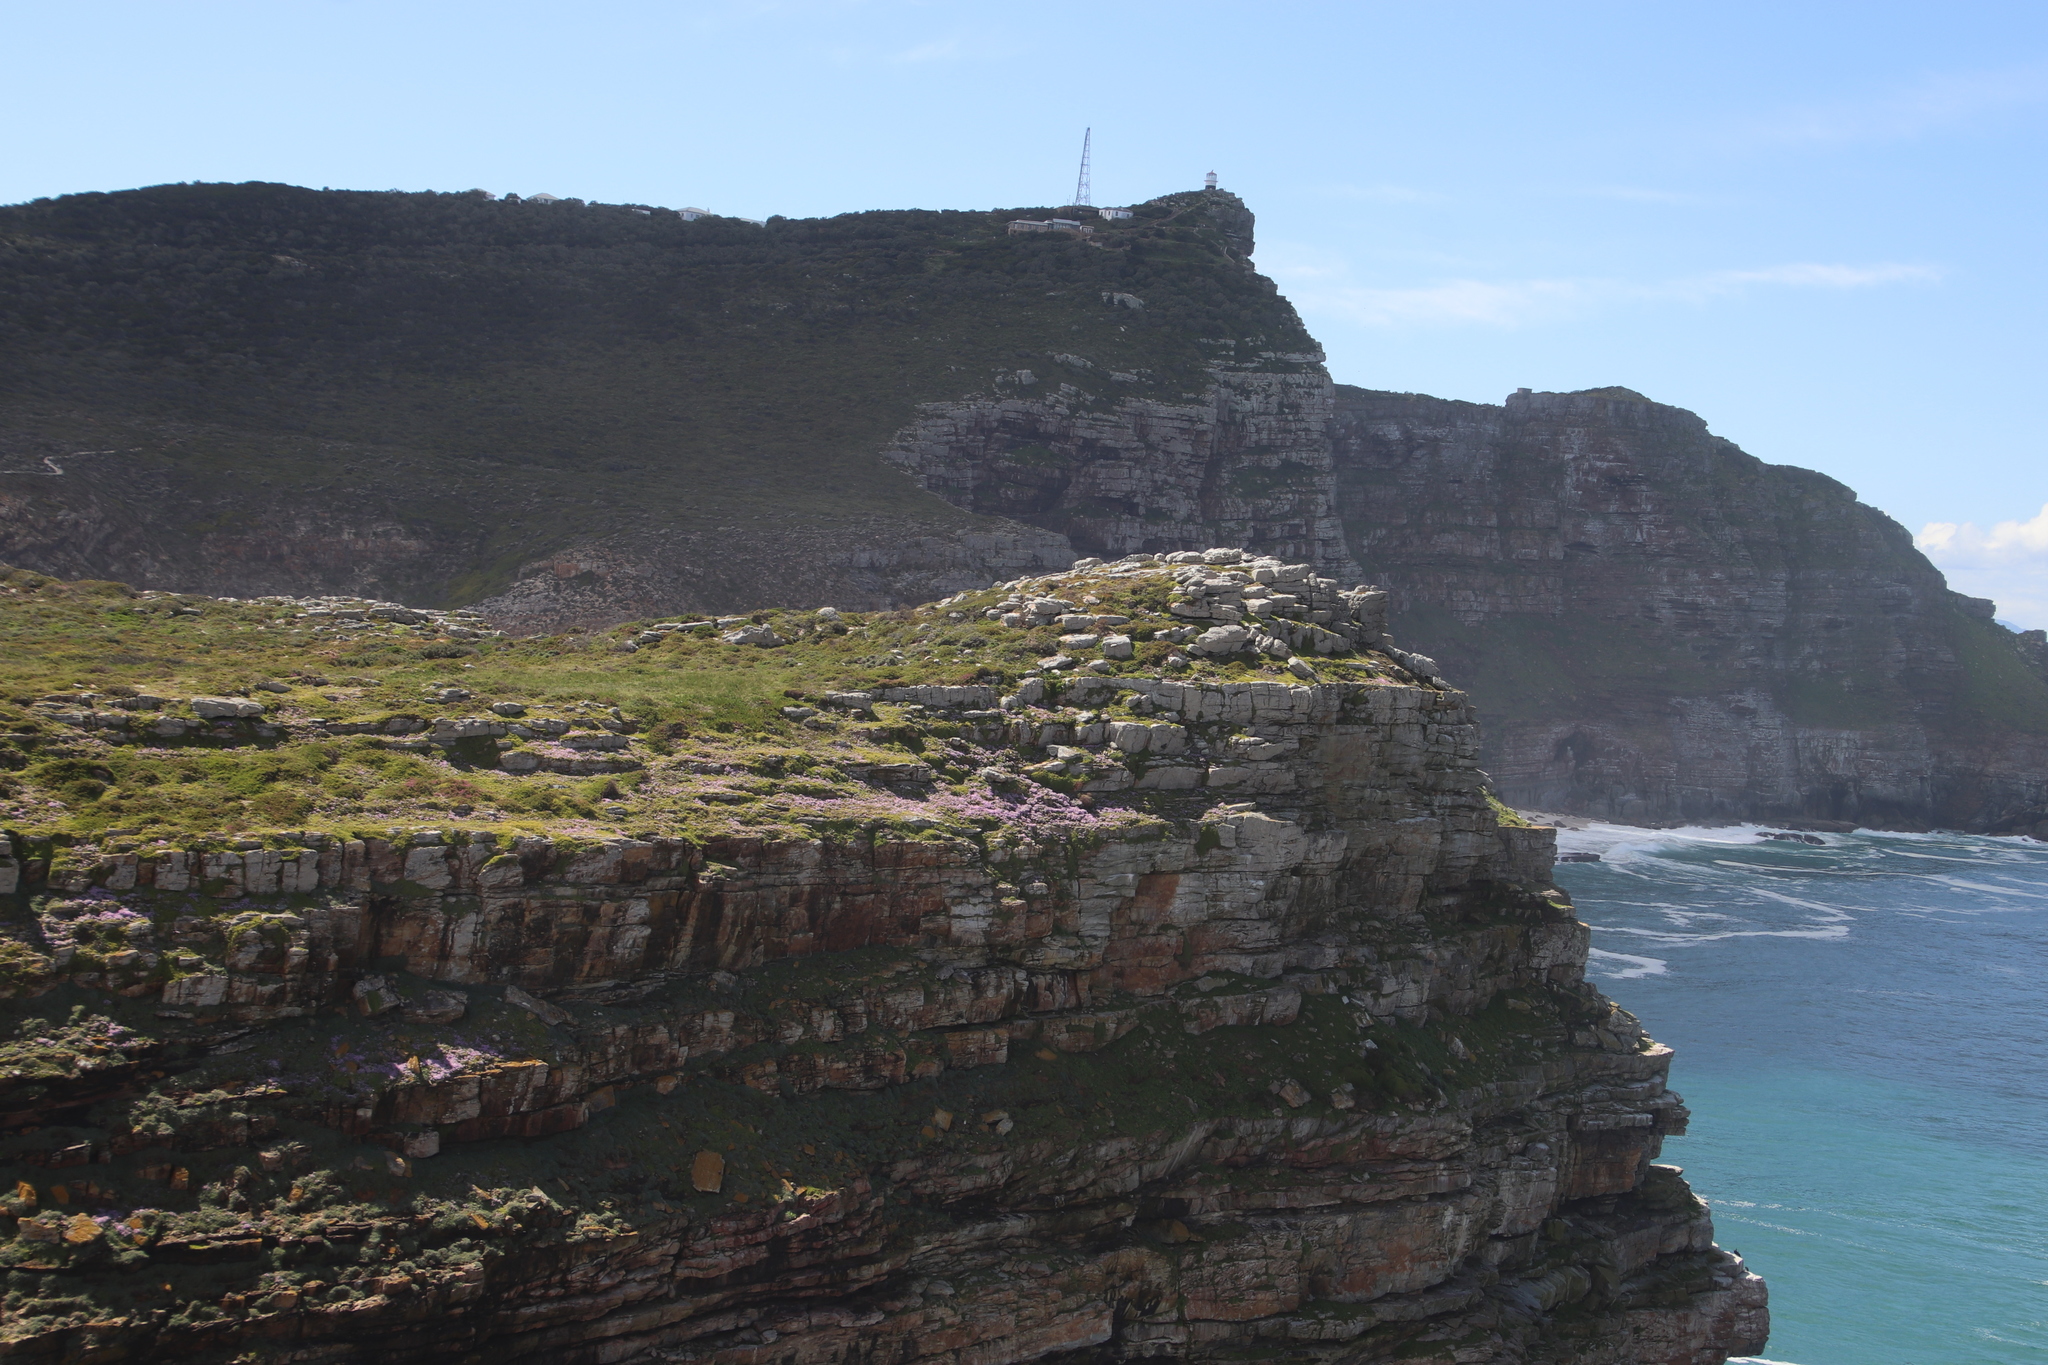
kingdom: Plantae
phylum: Tracheophyta
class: Magnoliopsida
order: Asterales
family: Asteraceae
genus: Senecio
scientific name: Senecio arenarius
